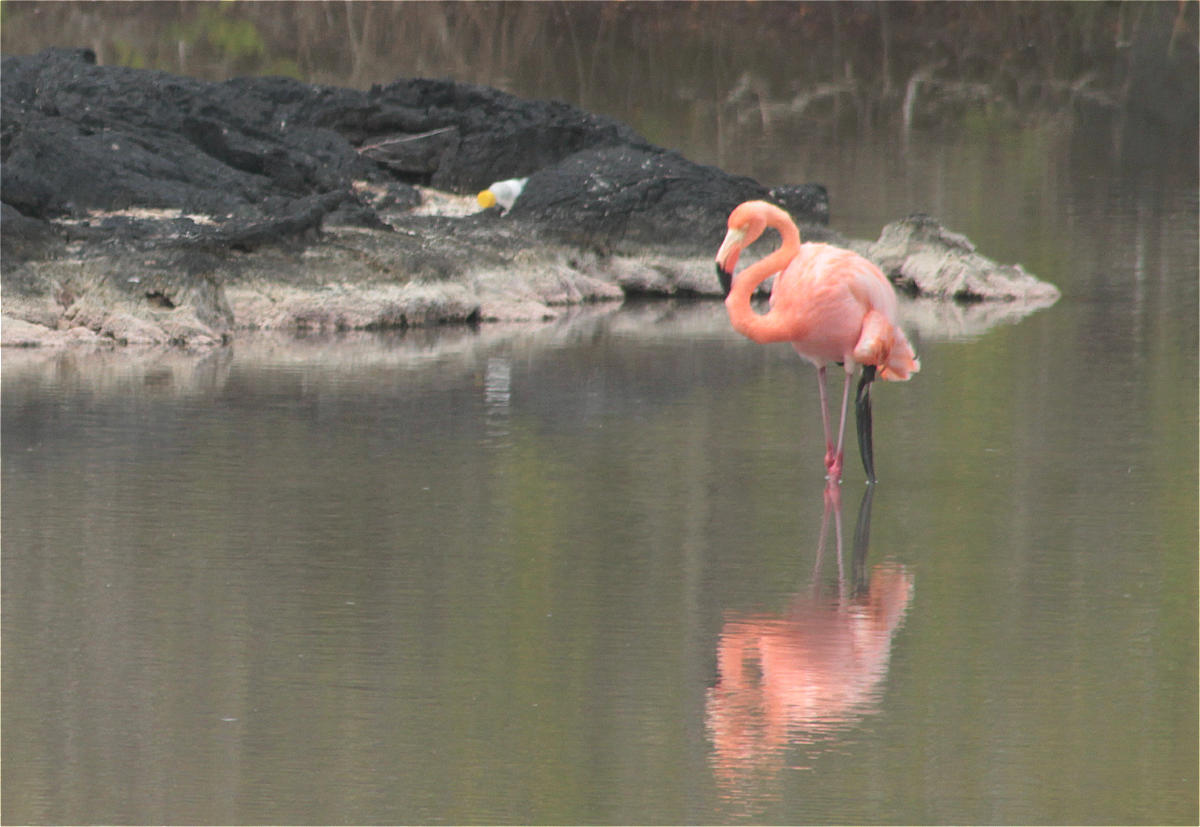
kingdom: Animalia
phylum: Chordata
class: Aves
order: Phoenicopteriformes
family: Phoenicopteridae
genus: Phoenicopterus
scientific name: Phoenicopterus ruber
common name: American flamingo
